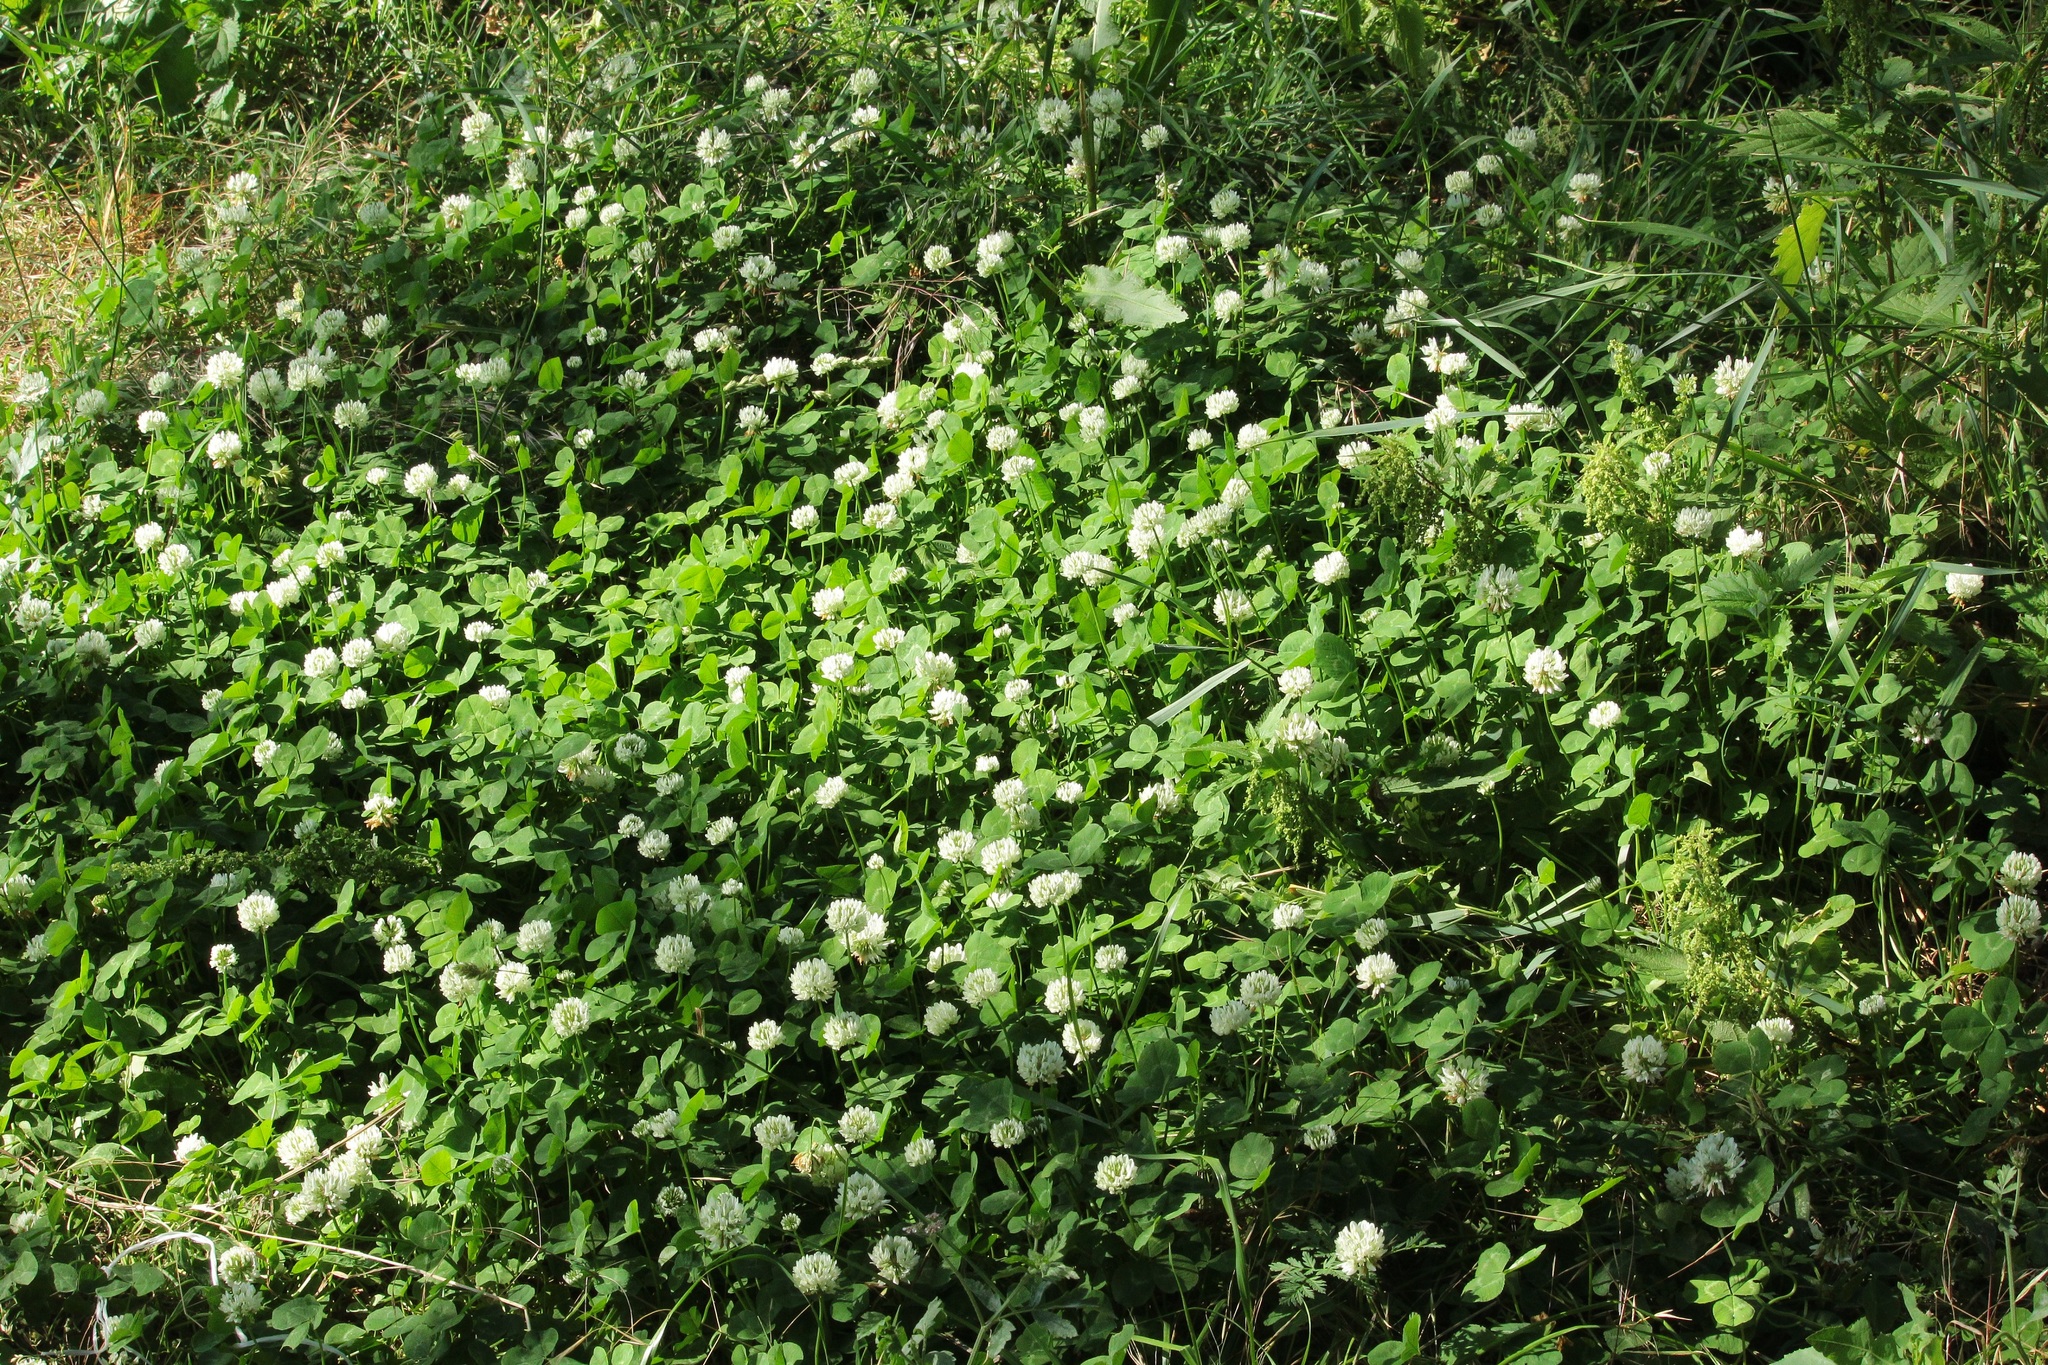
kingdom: Plantae
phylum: Tracheophyta
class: Magnoliopsida
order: Fabales
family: Fabaceae
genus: Trifolium
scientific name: Trifolium repens
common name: White clover
